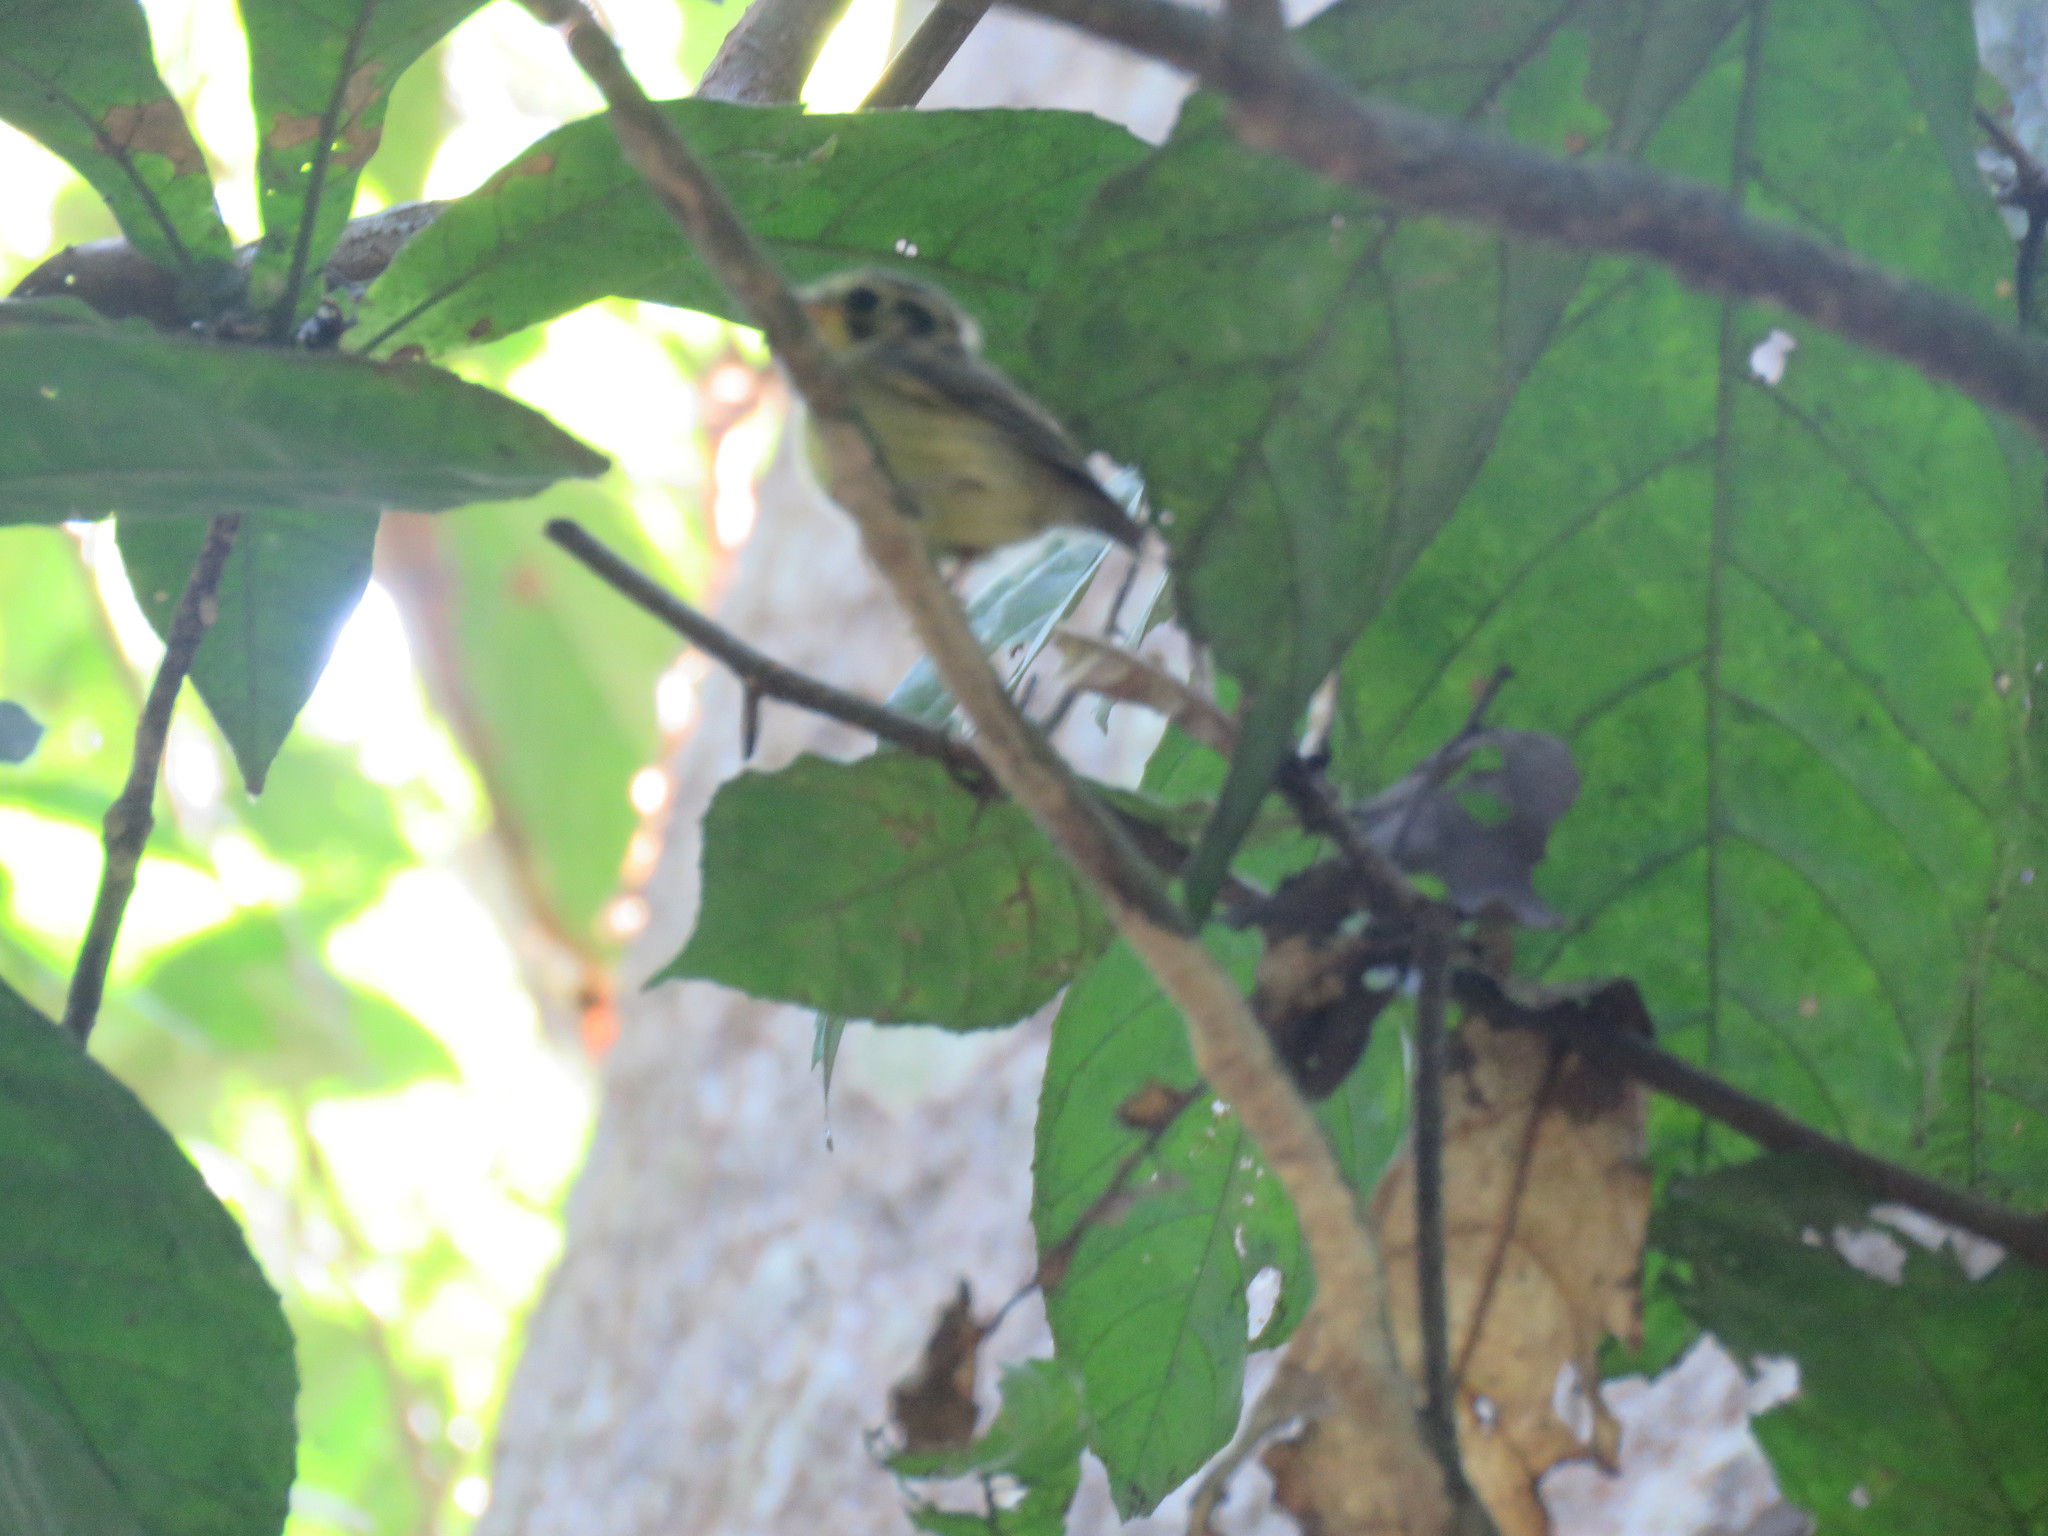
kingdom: Animalia
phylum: Chordata
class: Aves
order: Passeriformes
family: Tyrannidae
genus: Platyrinchus
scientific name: Platyrinchus coronatus
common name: Golden-crowned spadebill
